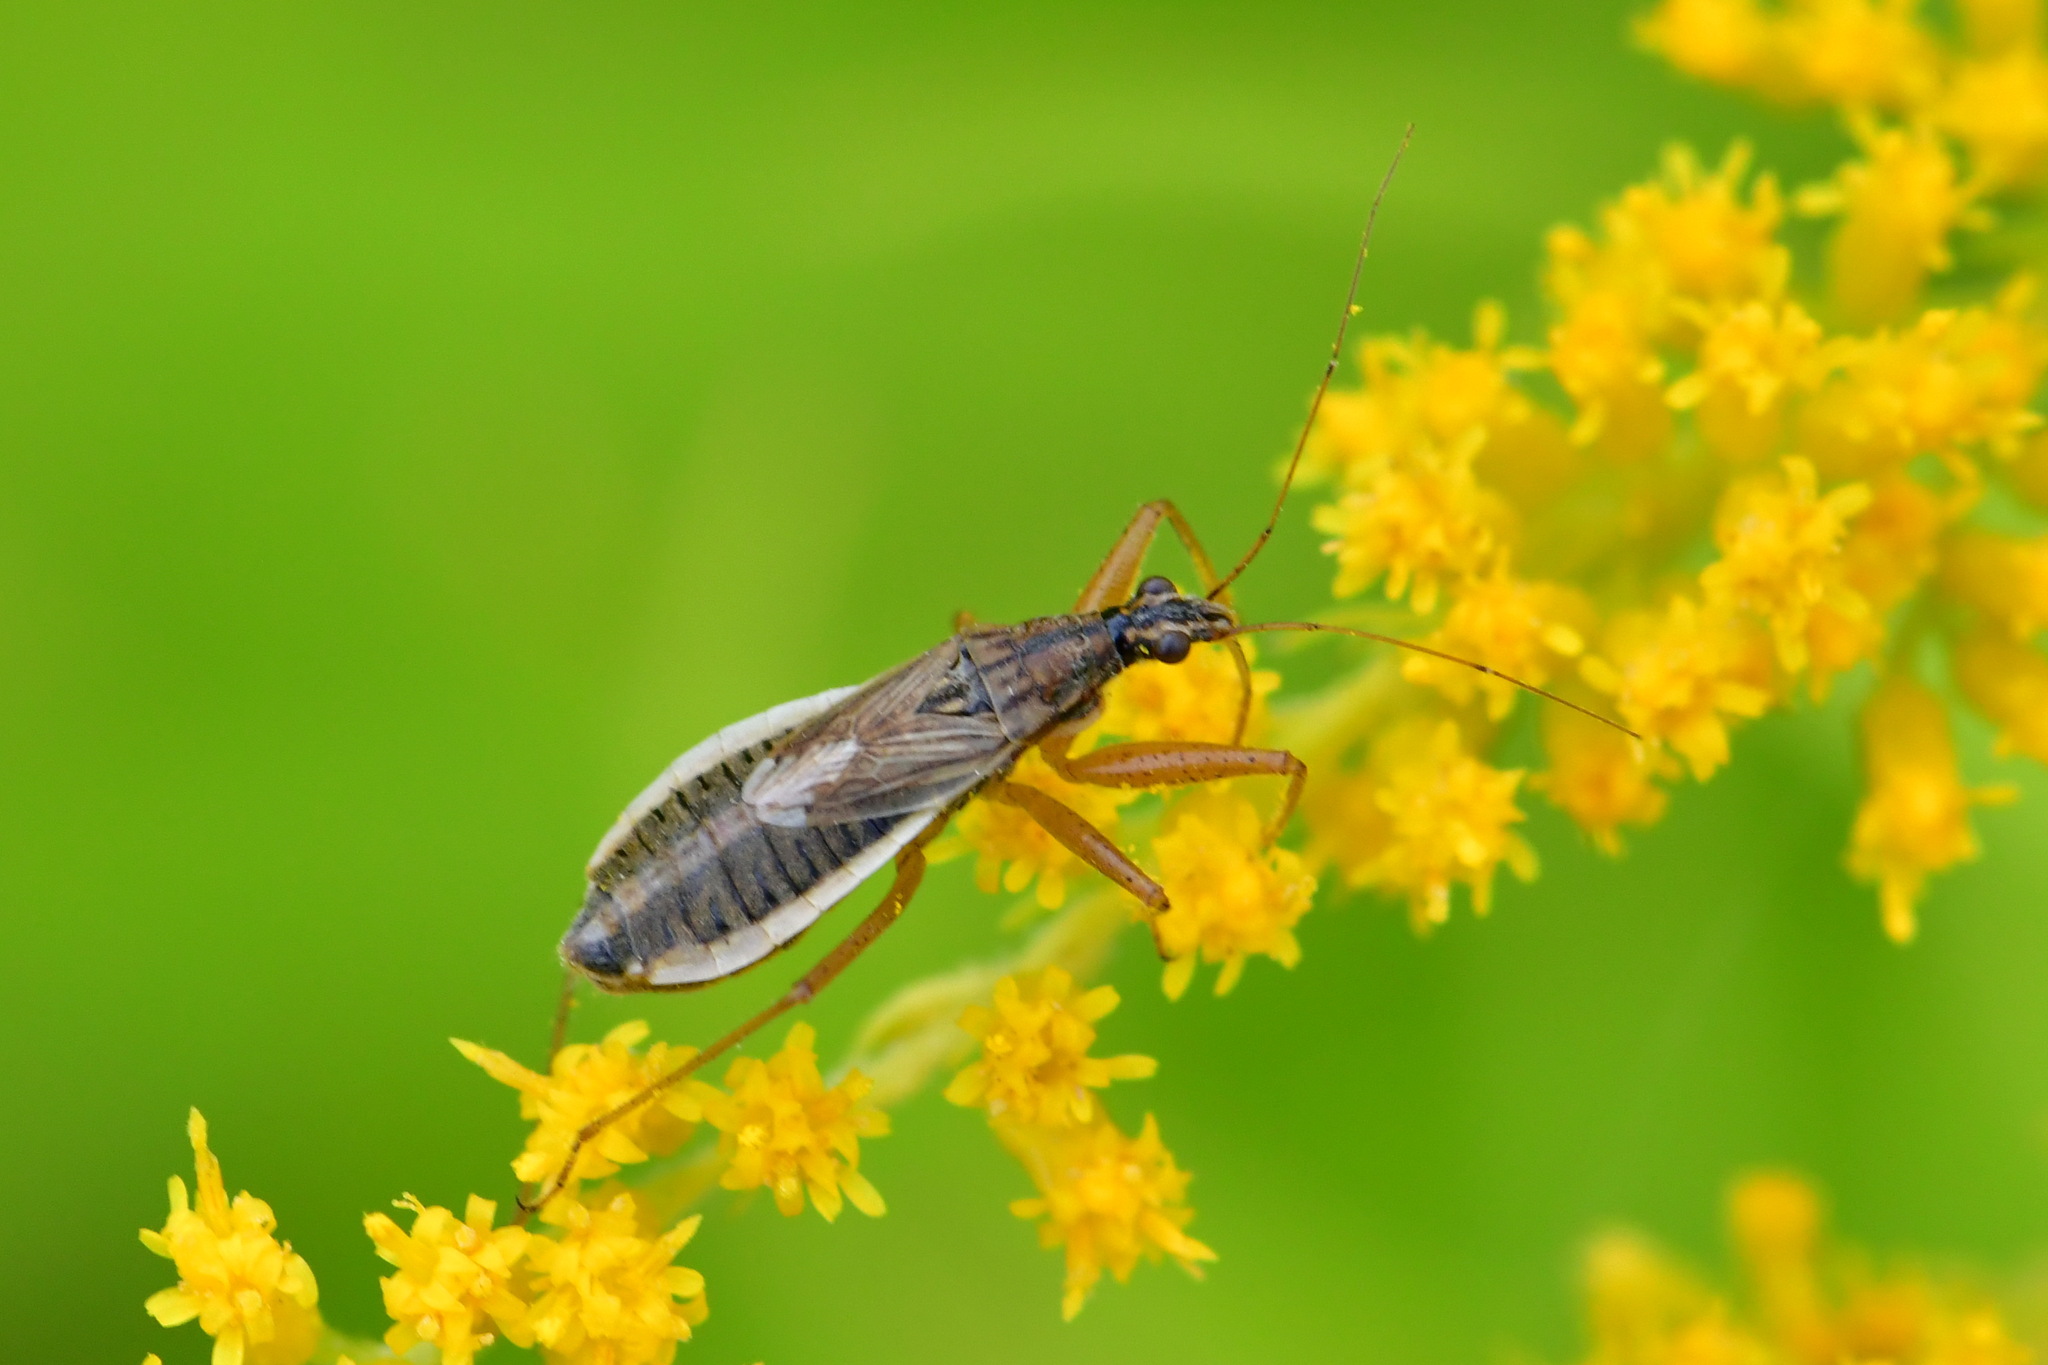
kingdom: Animalia
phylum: Arthropoda
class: Insecta
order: Hemiptera
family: Nabidae
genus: Nabis
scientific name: Nabis flavomarginatus
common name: Broad damselbug
